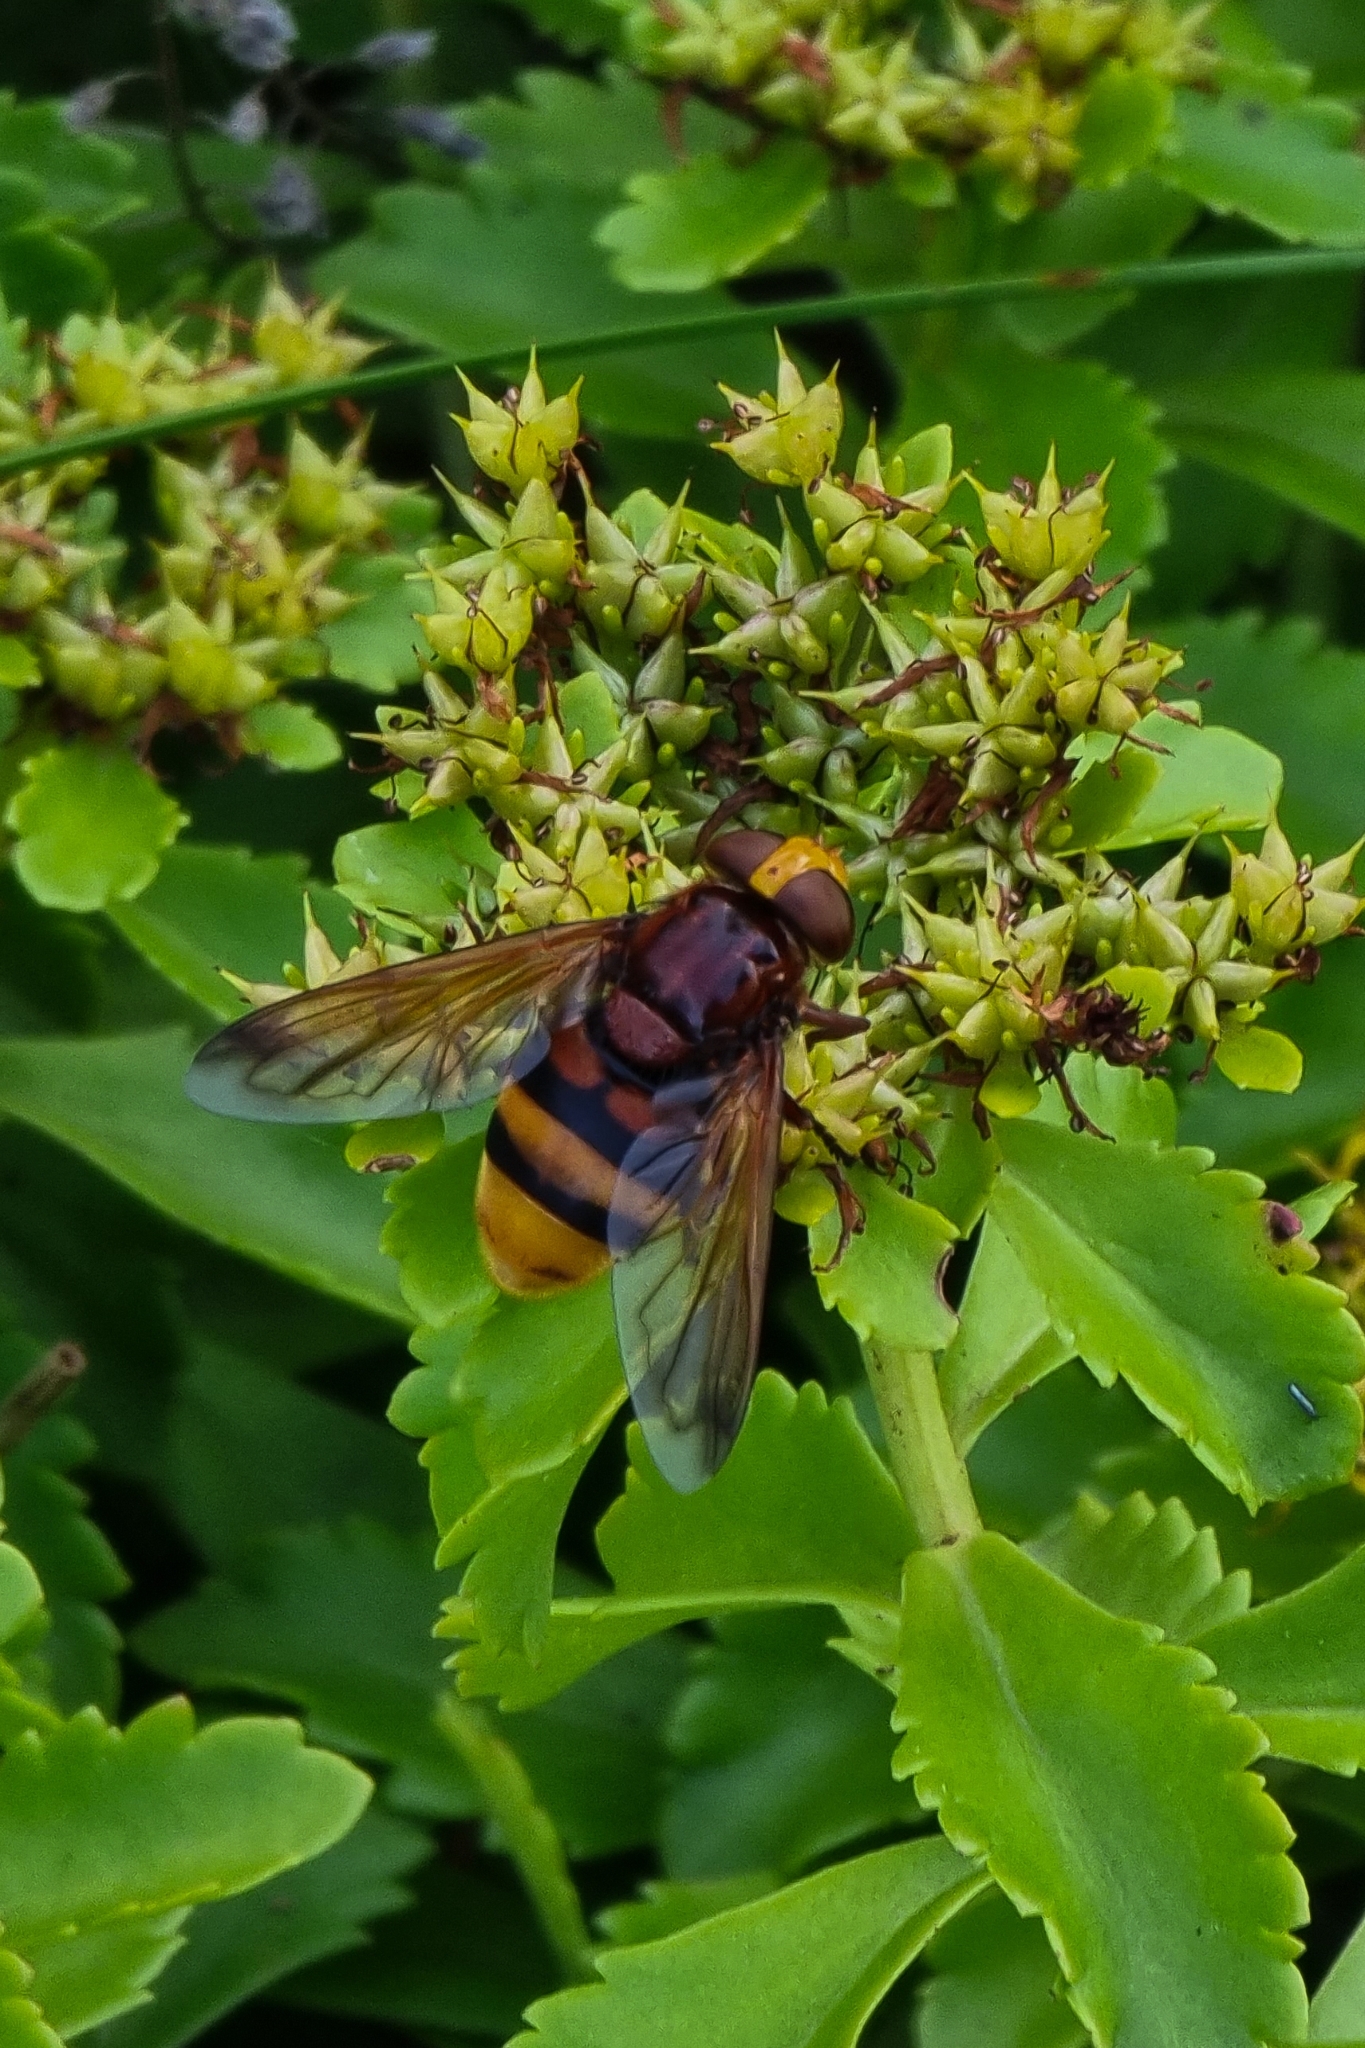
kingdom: Animalia
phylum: Arthropoda
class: Insecta
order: Diptera
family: Syrphidae
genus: Volucella
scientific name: Volucella zonaria
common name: Hornet hoverfly
